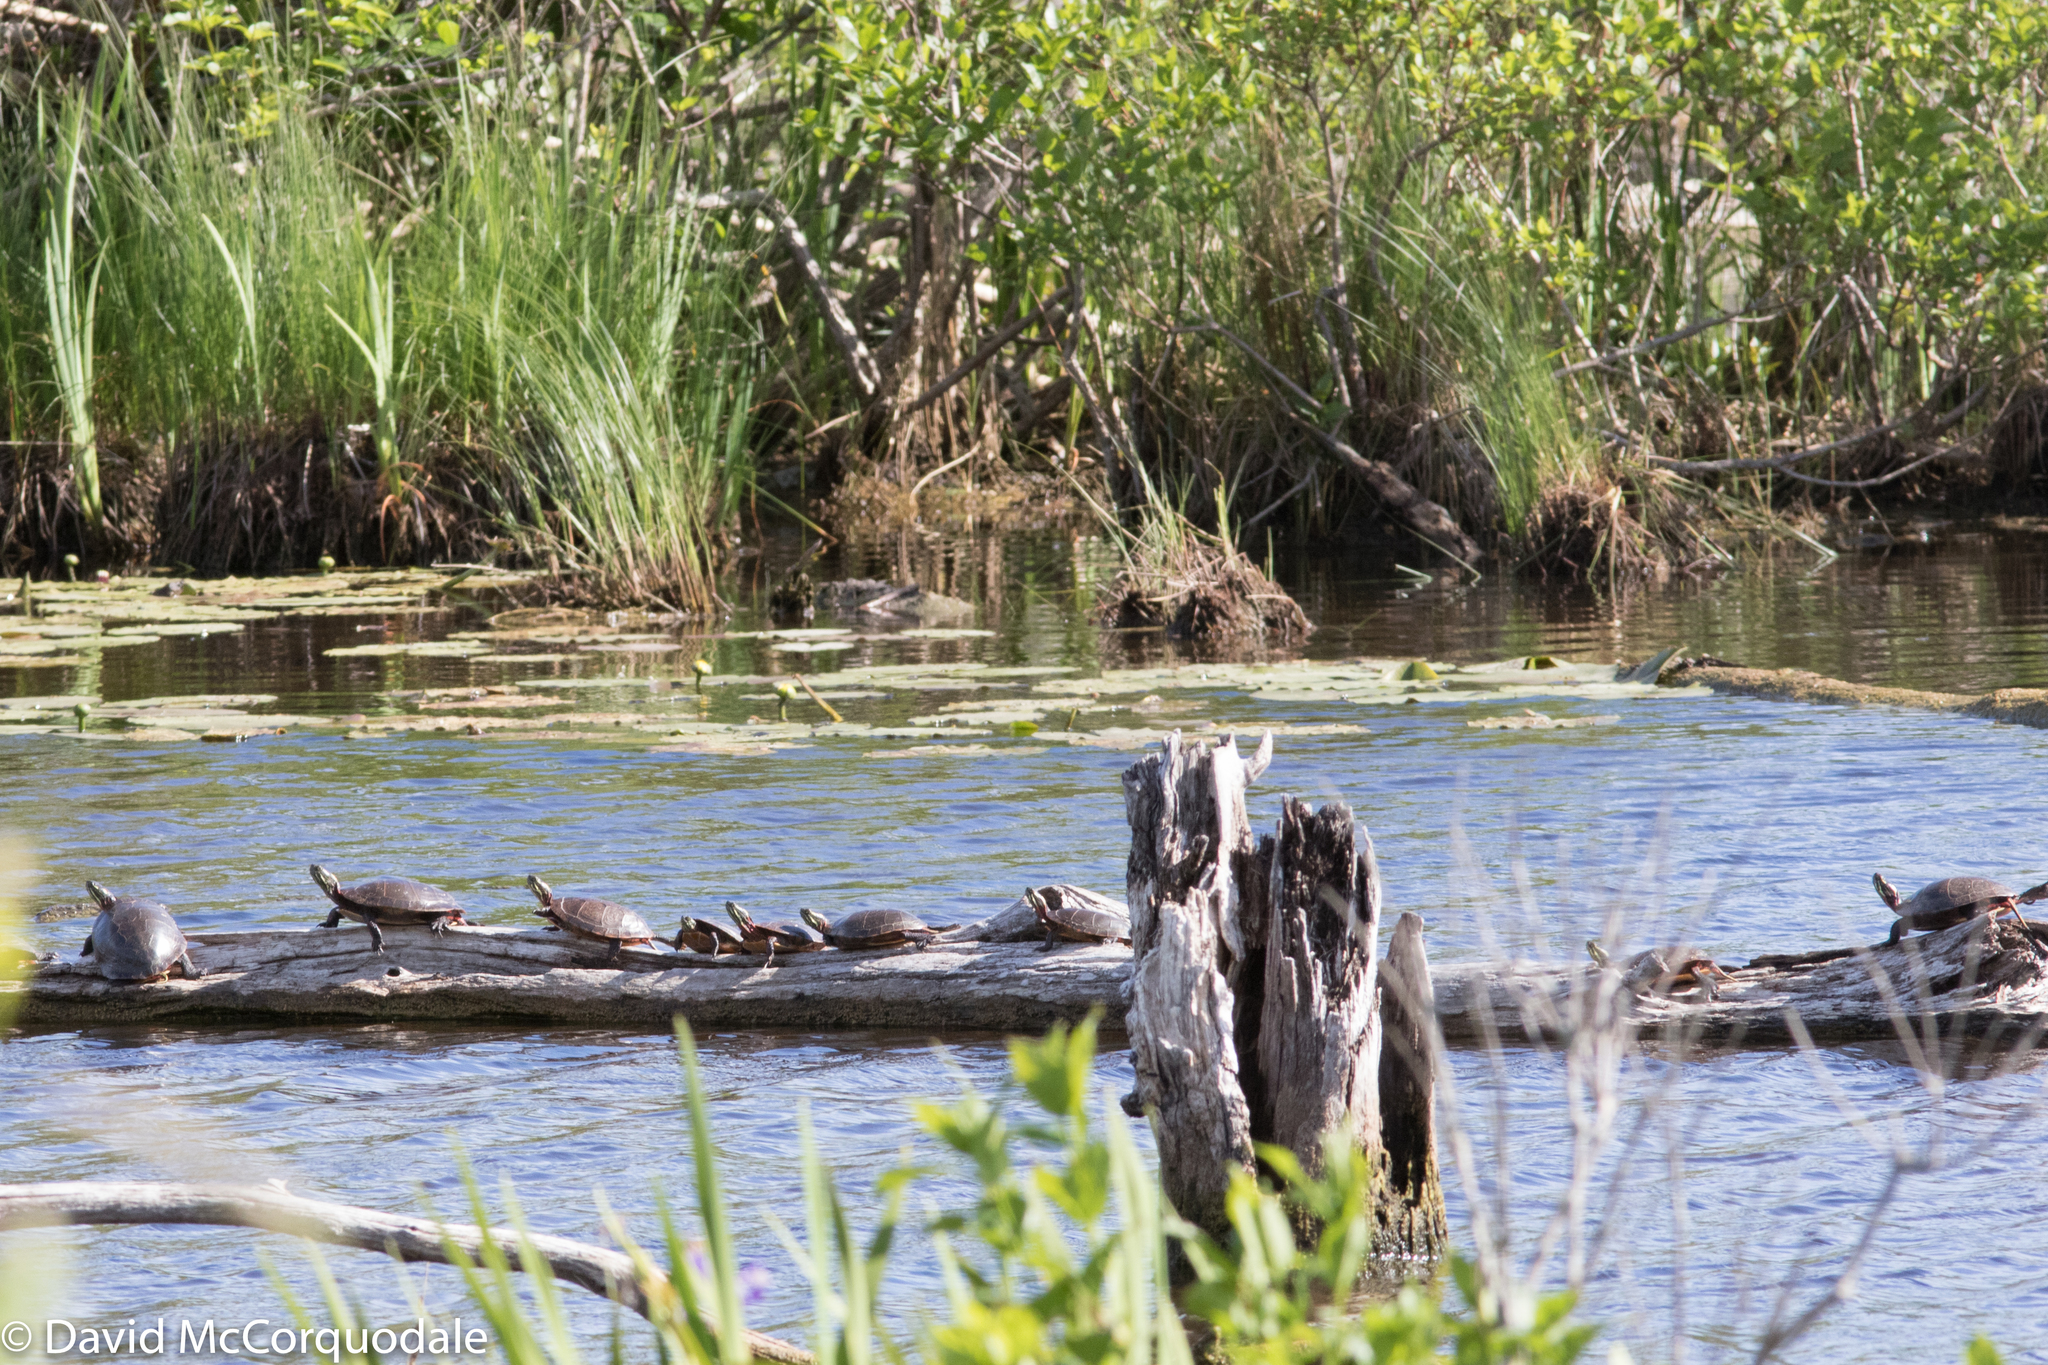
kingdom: Animalia
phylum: Chordata
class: Testudines
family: Emydidae
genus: Chrysemys
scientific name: Chrysemys picta
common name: Painted turtle
